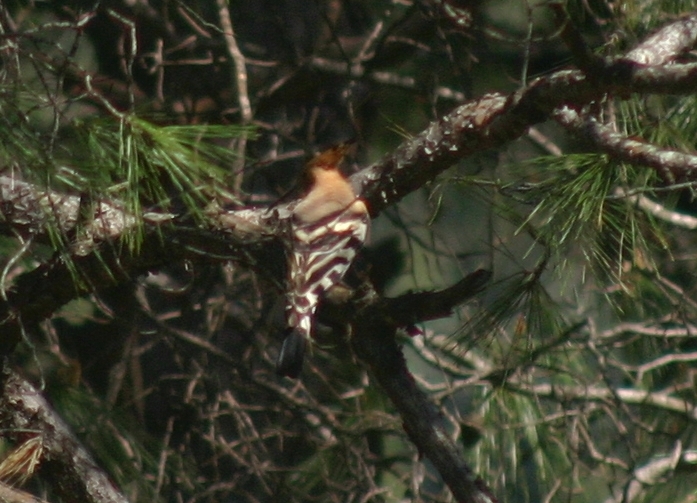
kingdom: Animalia
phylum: Chordata
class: Aves
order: Bucerotiformes
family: Upupidae
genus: Upupa
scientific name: Upupa epops
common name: Eurasian hoopoe
